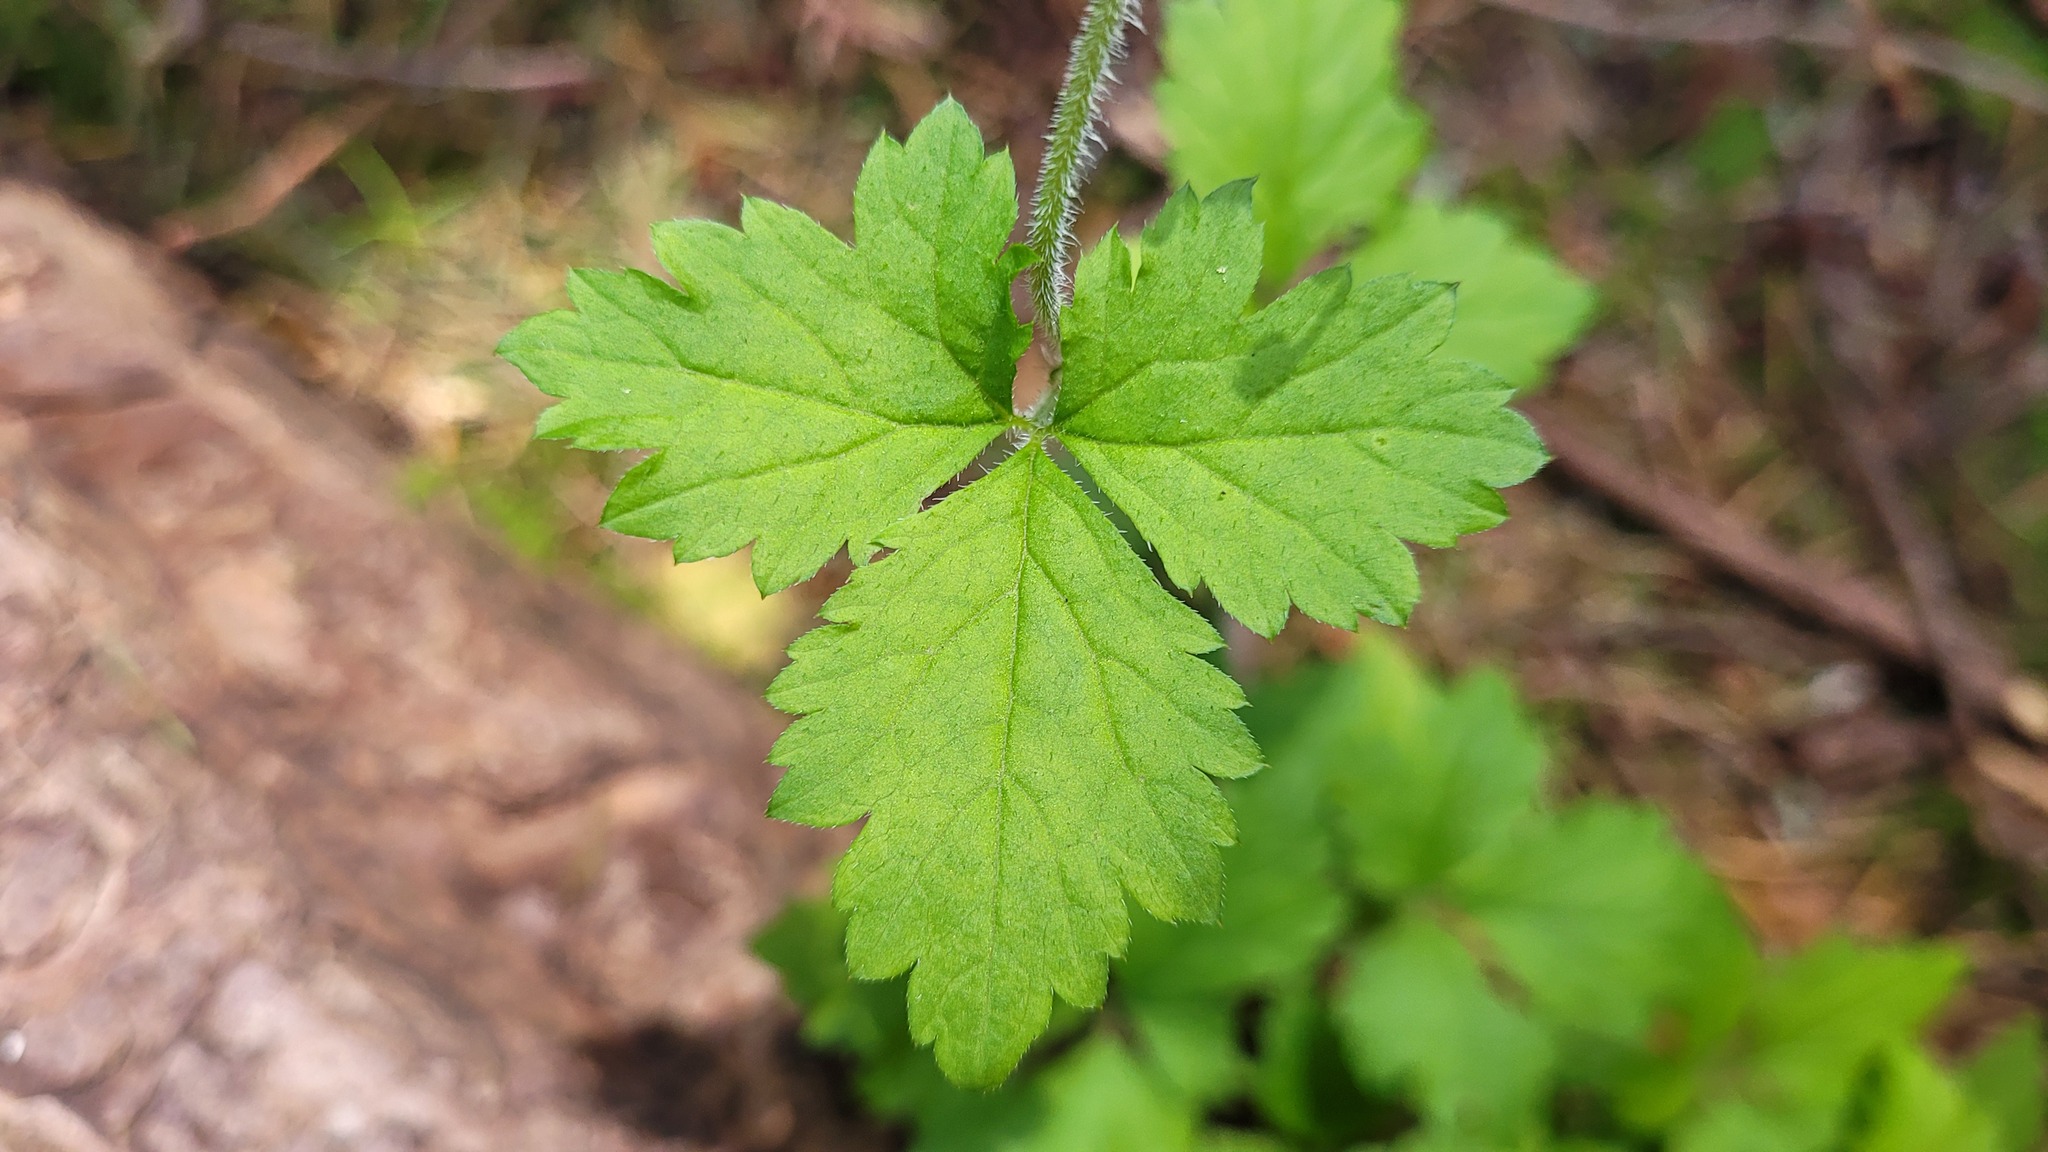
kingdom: Plantae
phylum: Tracheophyta
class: Magnoliopsida
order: Saxifragales
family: Saxifragaceae
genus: Tiarella
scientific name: Tiarella trifoliata
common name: Sugar-scoop
